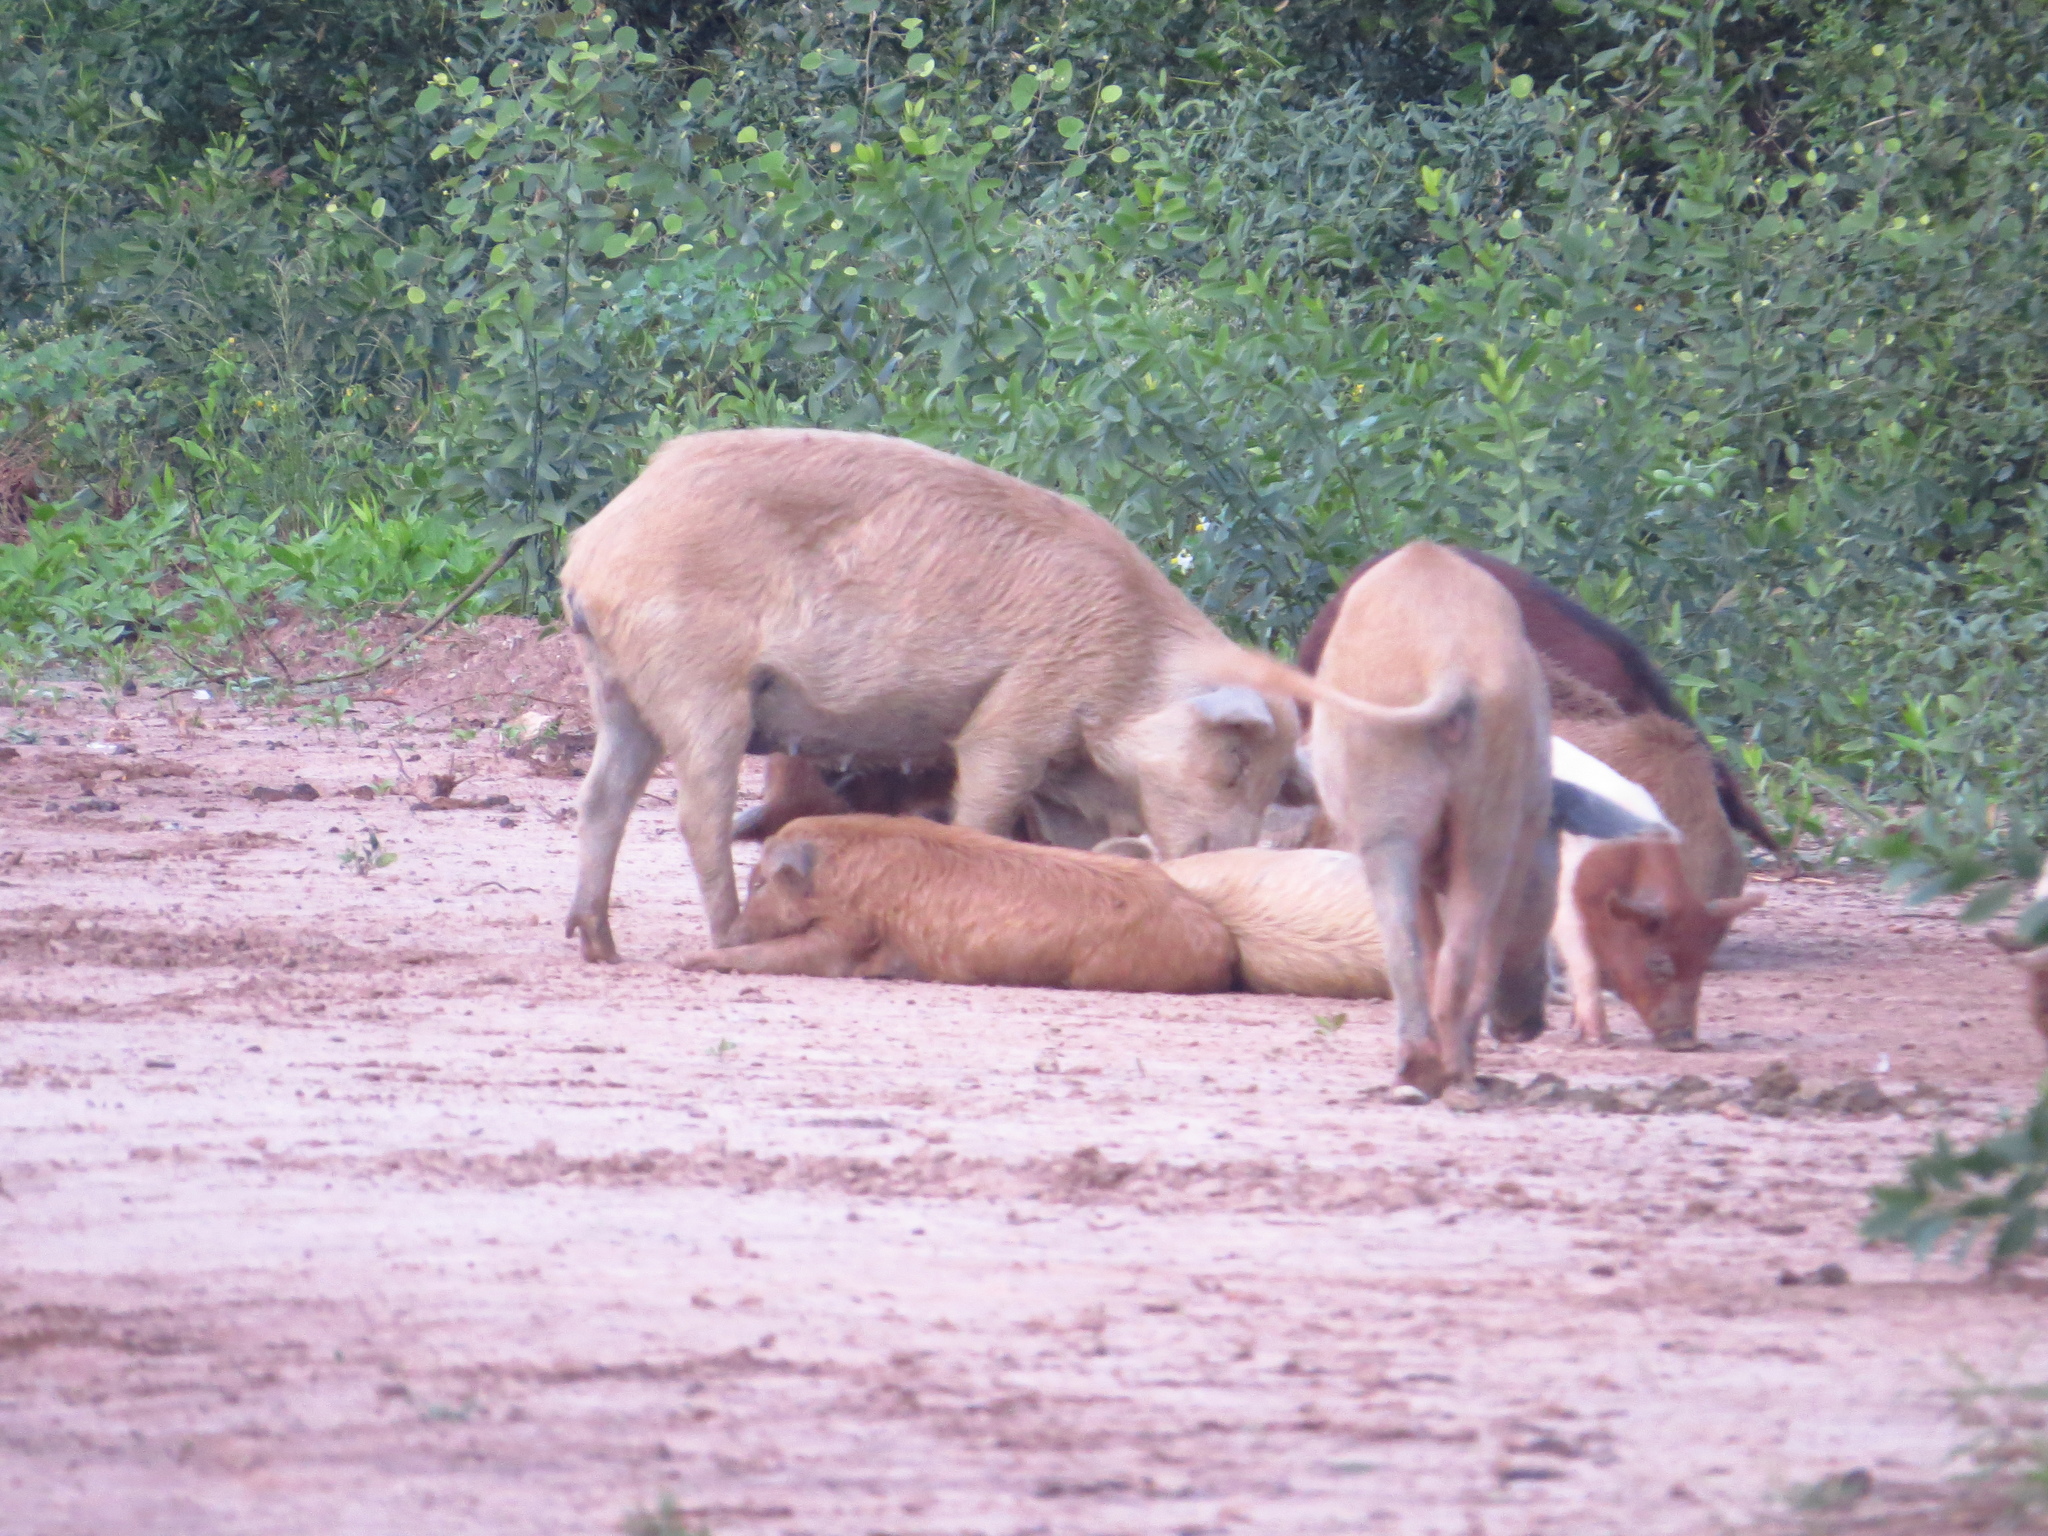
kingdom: Animalia
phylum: Chordata
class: Mammalia
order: Artiodactyla
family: Suidae
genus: Sus
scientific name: Sus scrofa
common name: Wild boar
